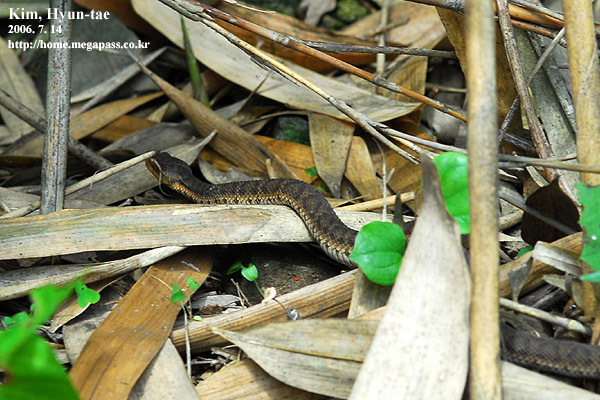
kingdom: Animalia
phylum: Chordata
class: Squamata
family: Viperidae
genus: Gloydius
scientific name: Gloydius ussuriensis
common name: Ussuri mamushi
